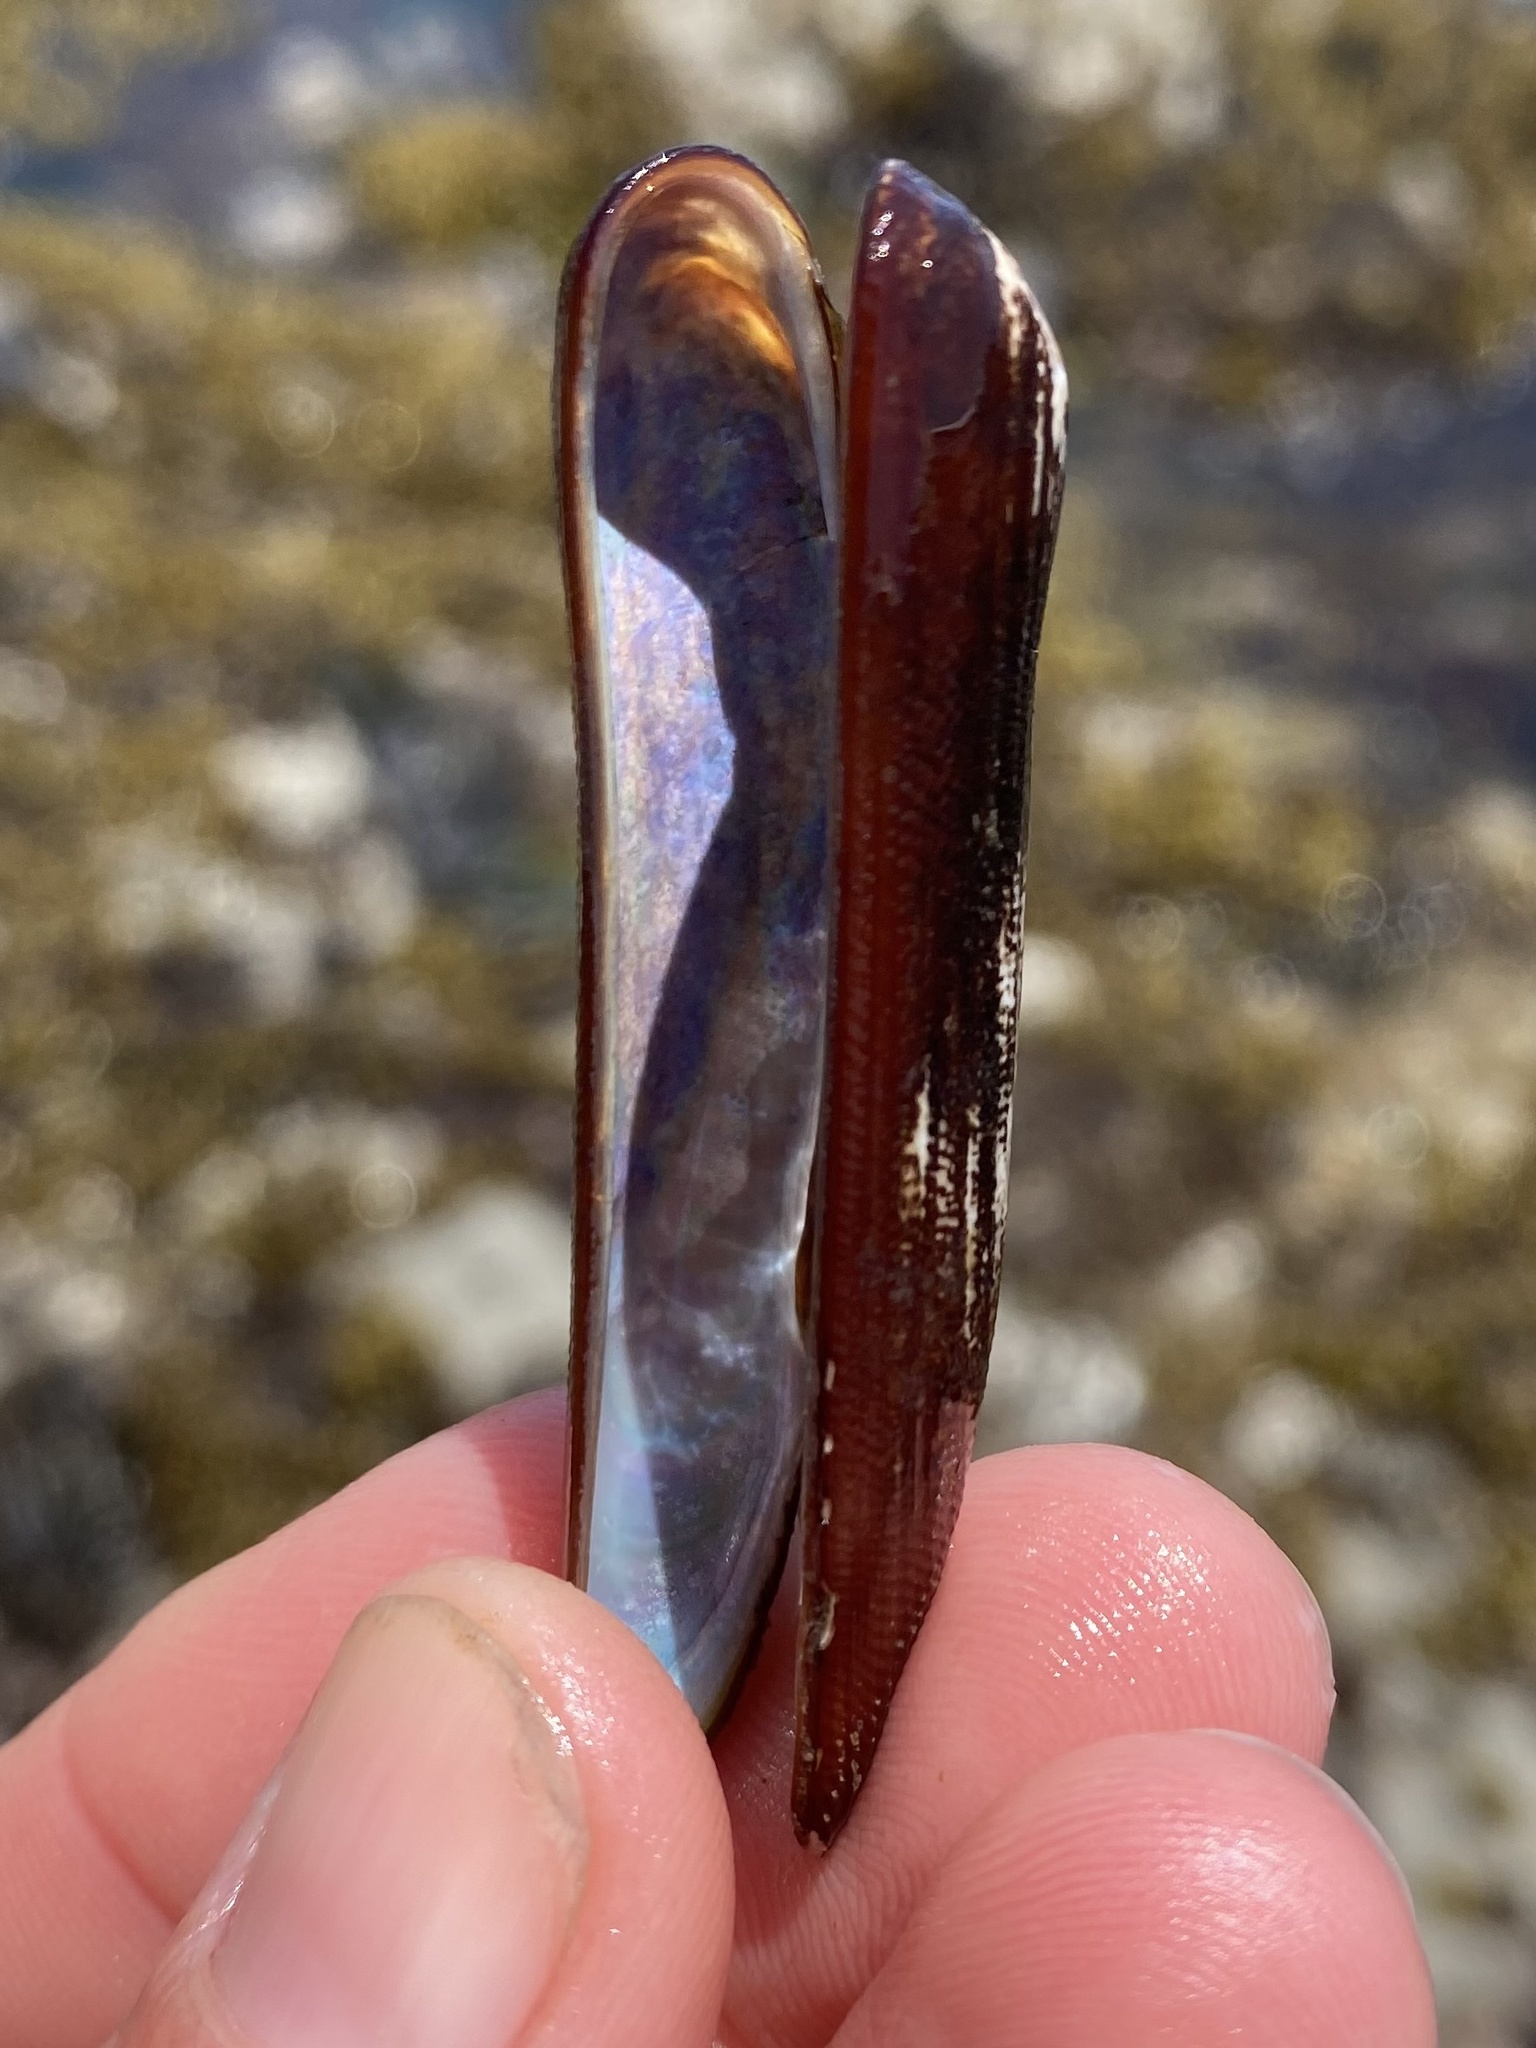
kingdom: Animalia
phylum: Mollusca
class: Bivalvia
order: Mytilida
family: Mytilidae
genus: Adula
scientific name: Adula gruneri
